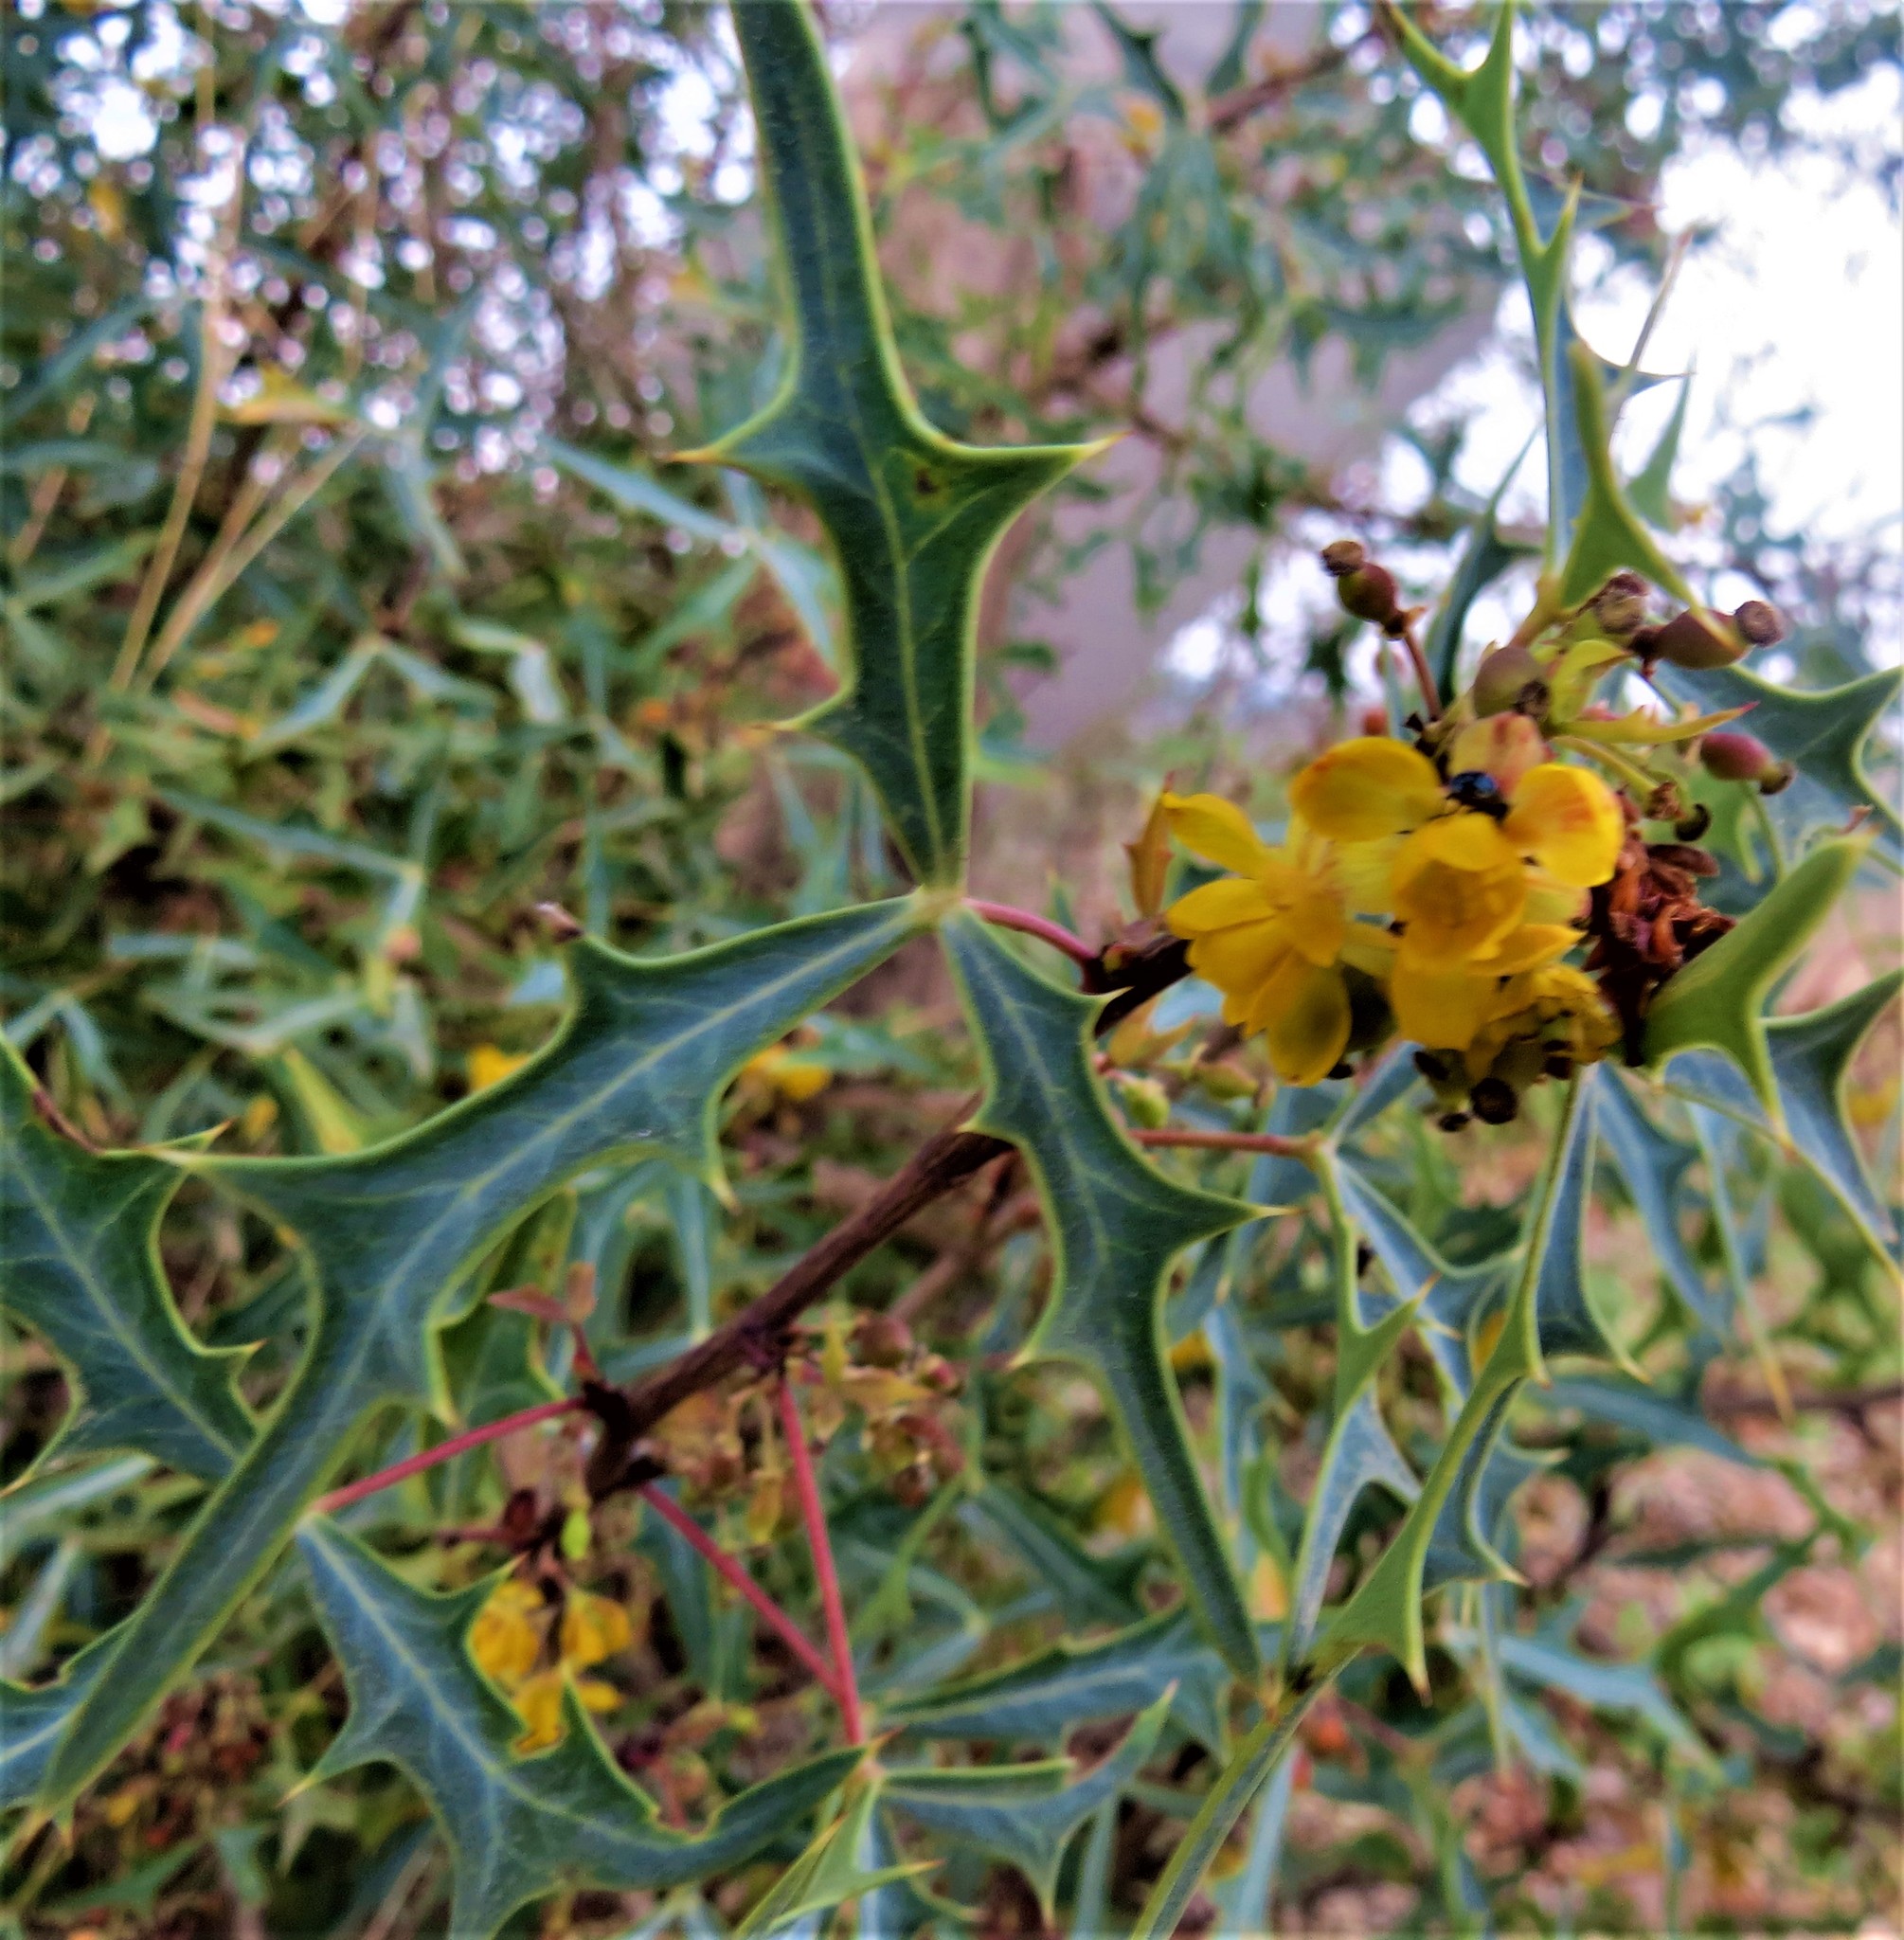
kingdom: Plantae
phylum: Tracheophyta
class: Magnoliopsida
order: Ranunculales
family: Berberidaceae
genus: Alloberberis
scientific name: Alloberberis trifoliolata
